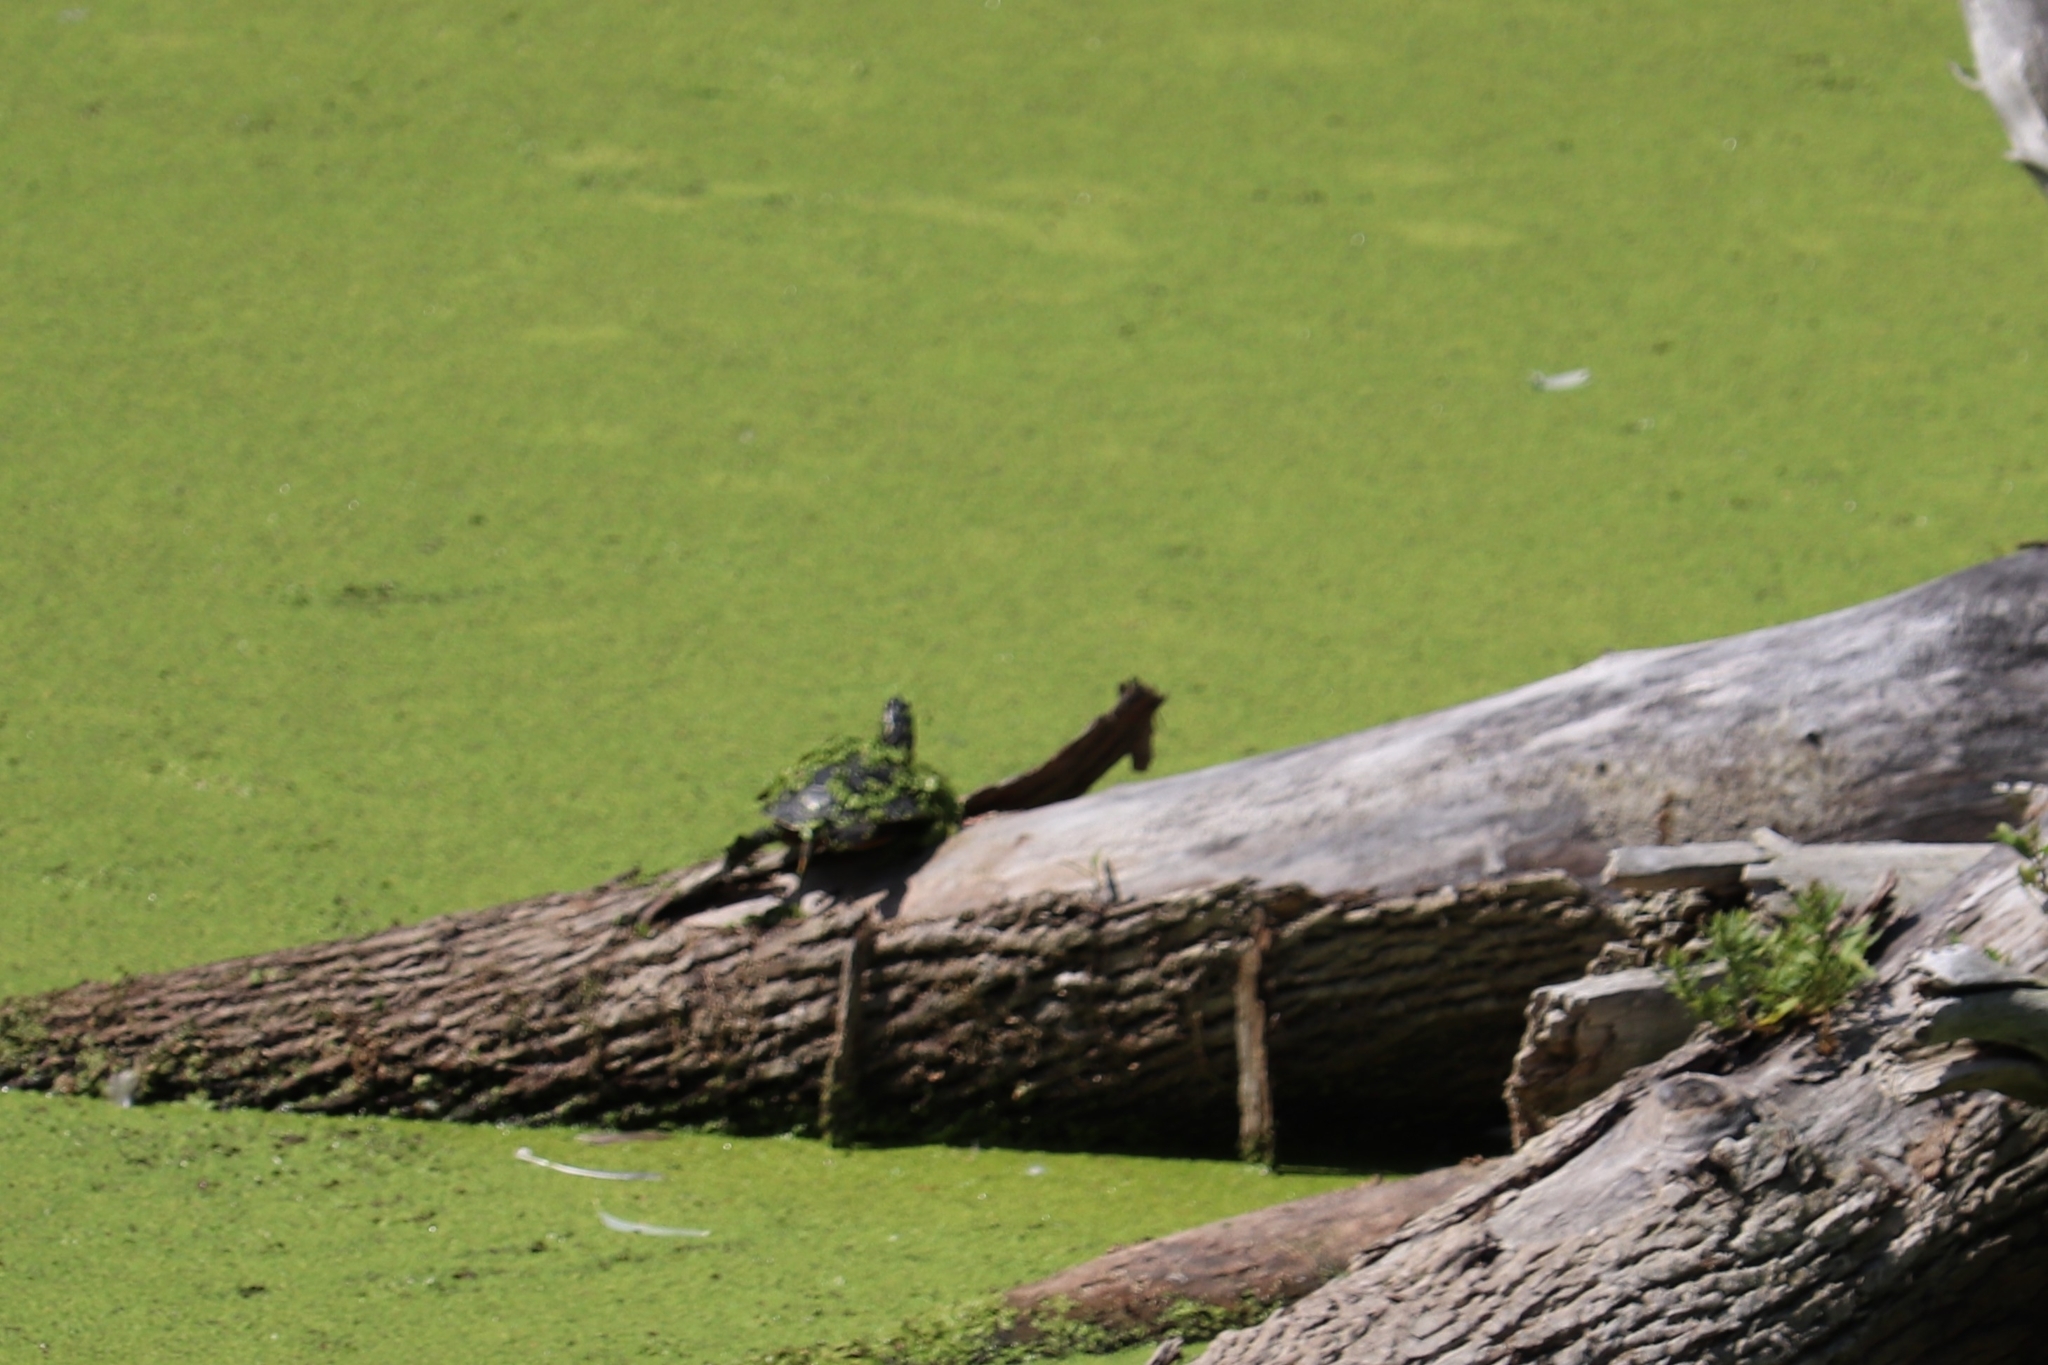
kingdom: Animalia
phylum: Chordata
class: Testudines
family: Emydidae
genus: Chrysemys
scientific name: Chrysemys picta
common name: Painted turtle
